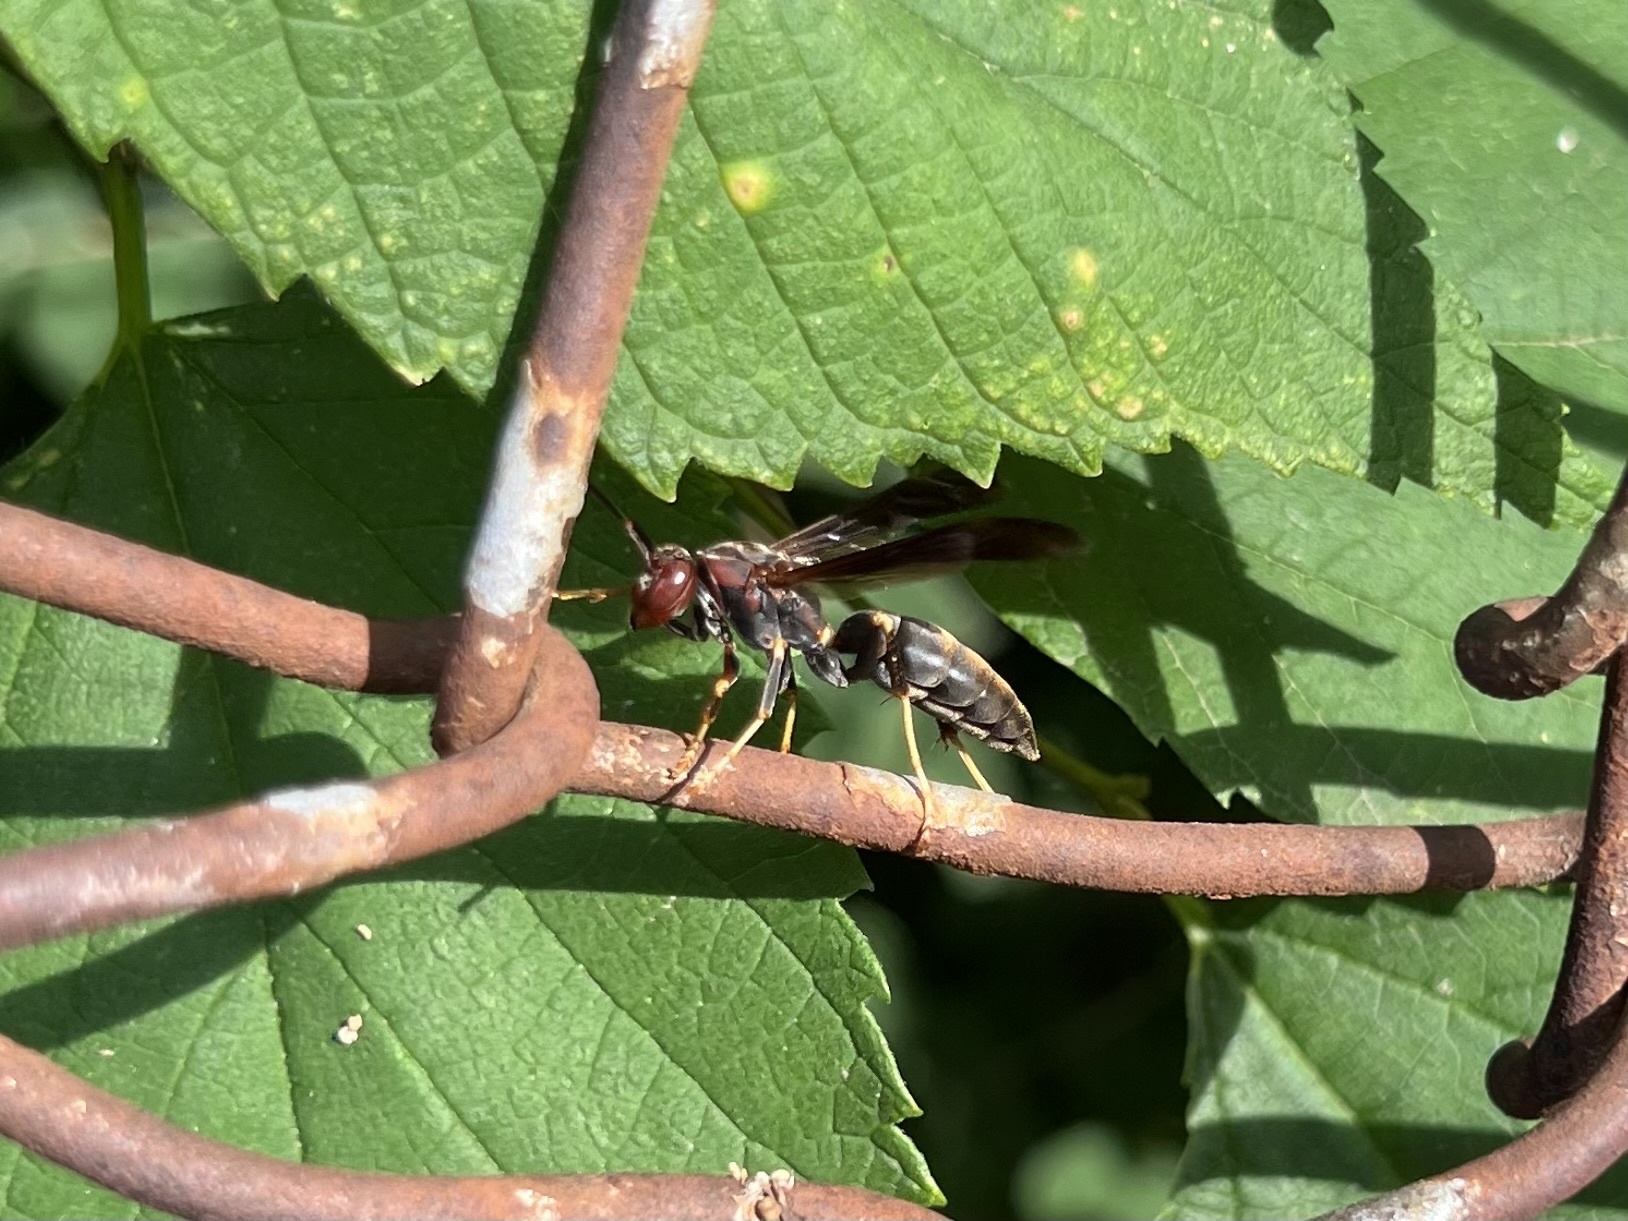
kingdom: Animalia
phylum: Arthropoda
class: Insecta
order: Hymenoptera
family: Eumenidae
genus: Polistes
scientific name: Polistes metricus
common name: Metric paper wasp
